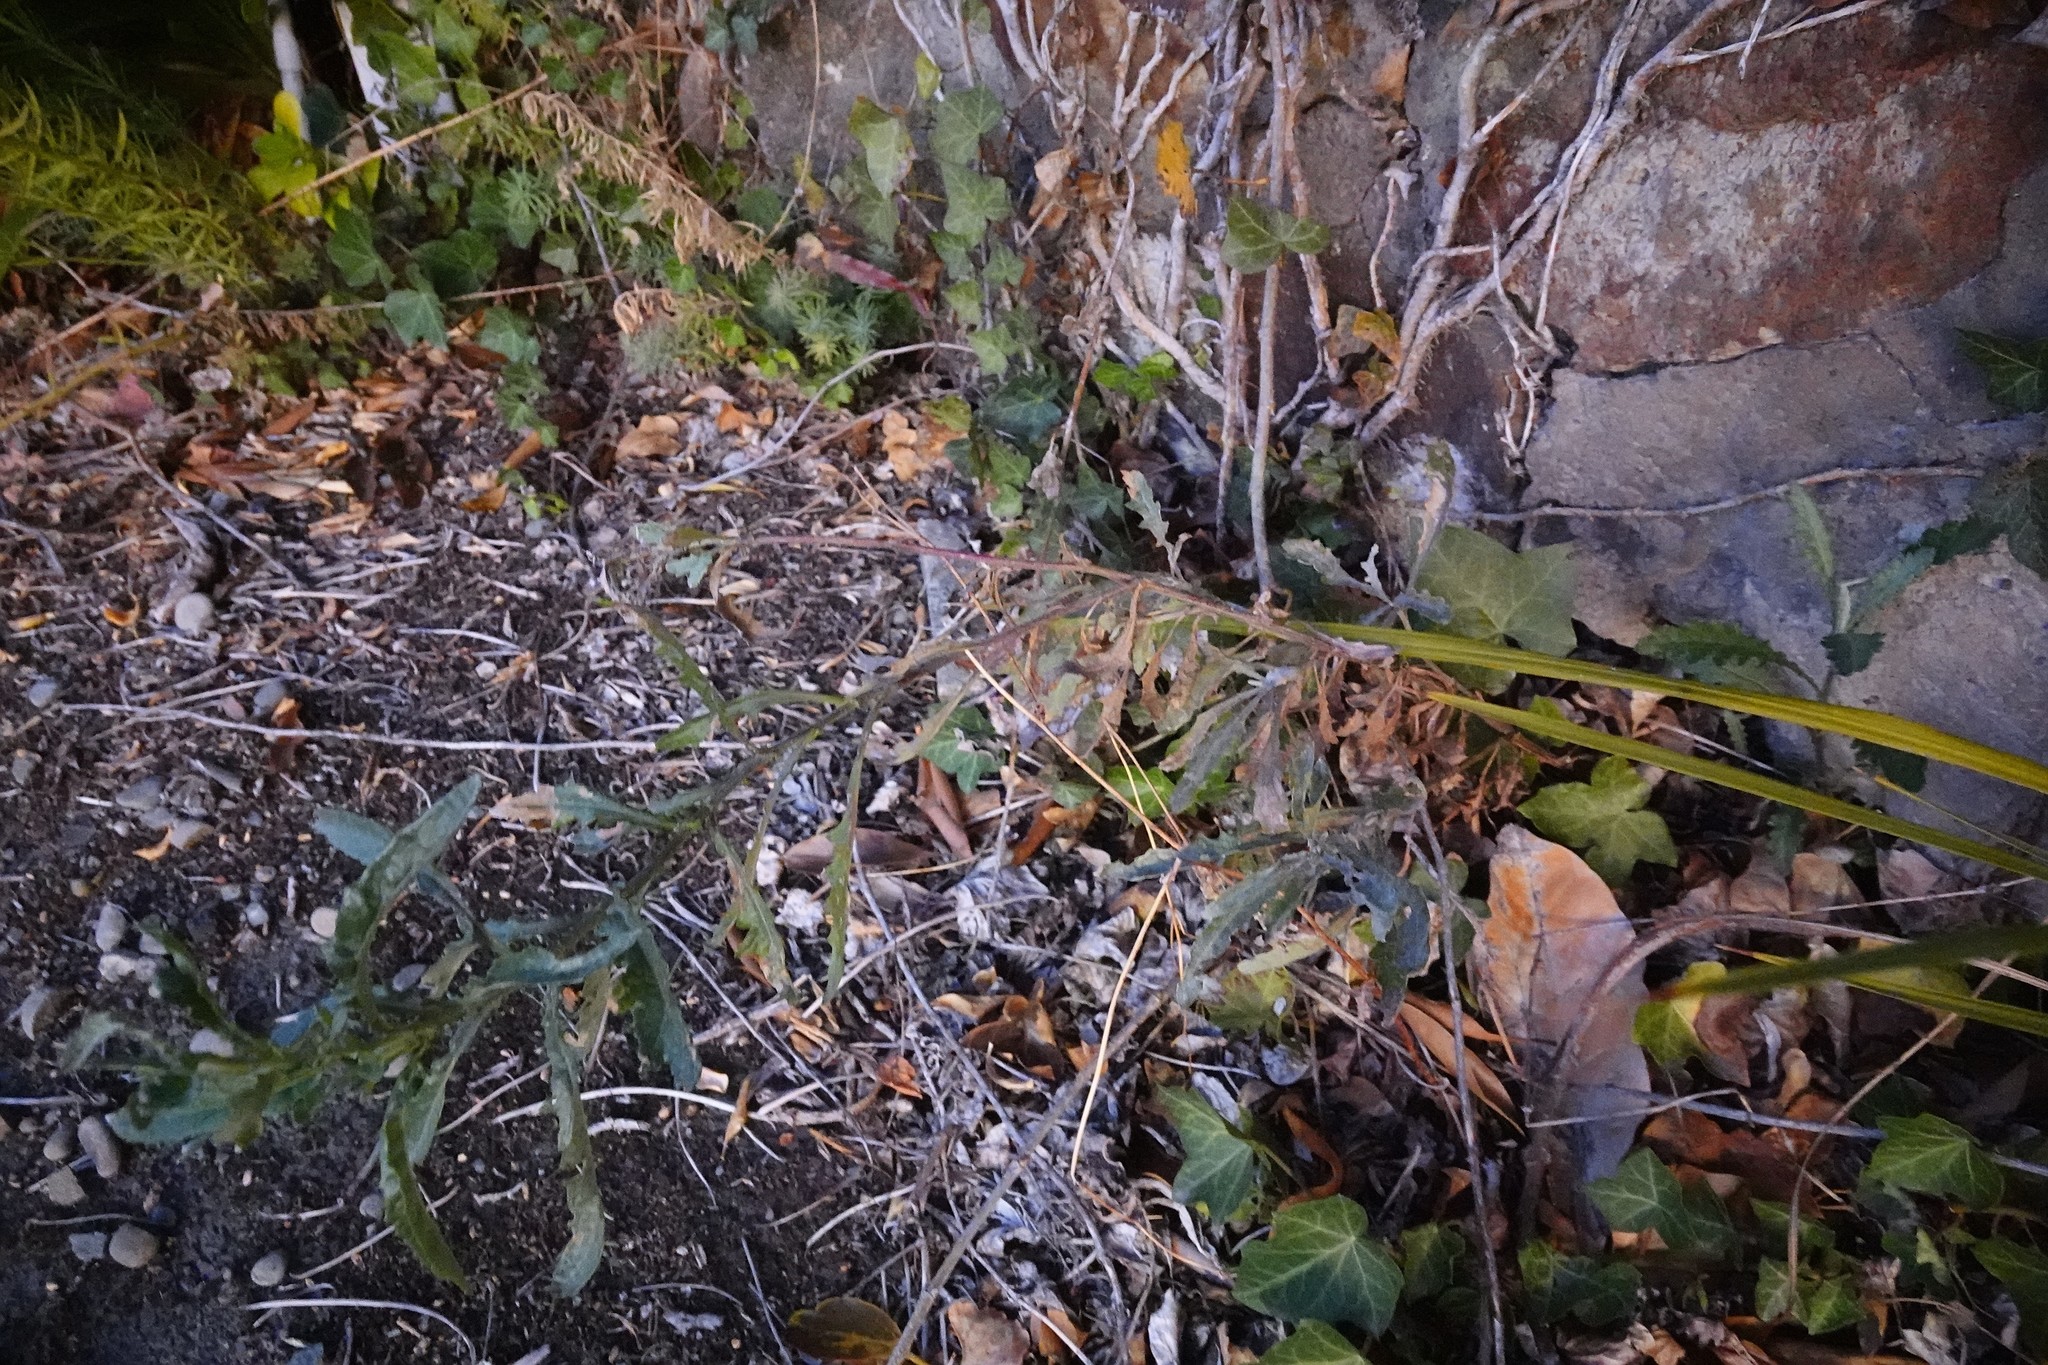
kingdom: Plantae
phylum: Tracheophyta
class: Magnoliopsida
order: Asterales
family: Asteraceae
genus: Senecio
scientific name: Senecio glomeratus
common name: Cutleaf burnweed
